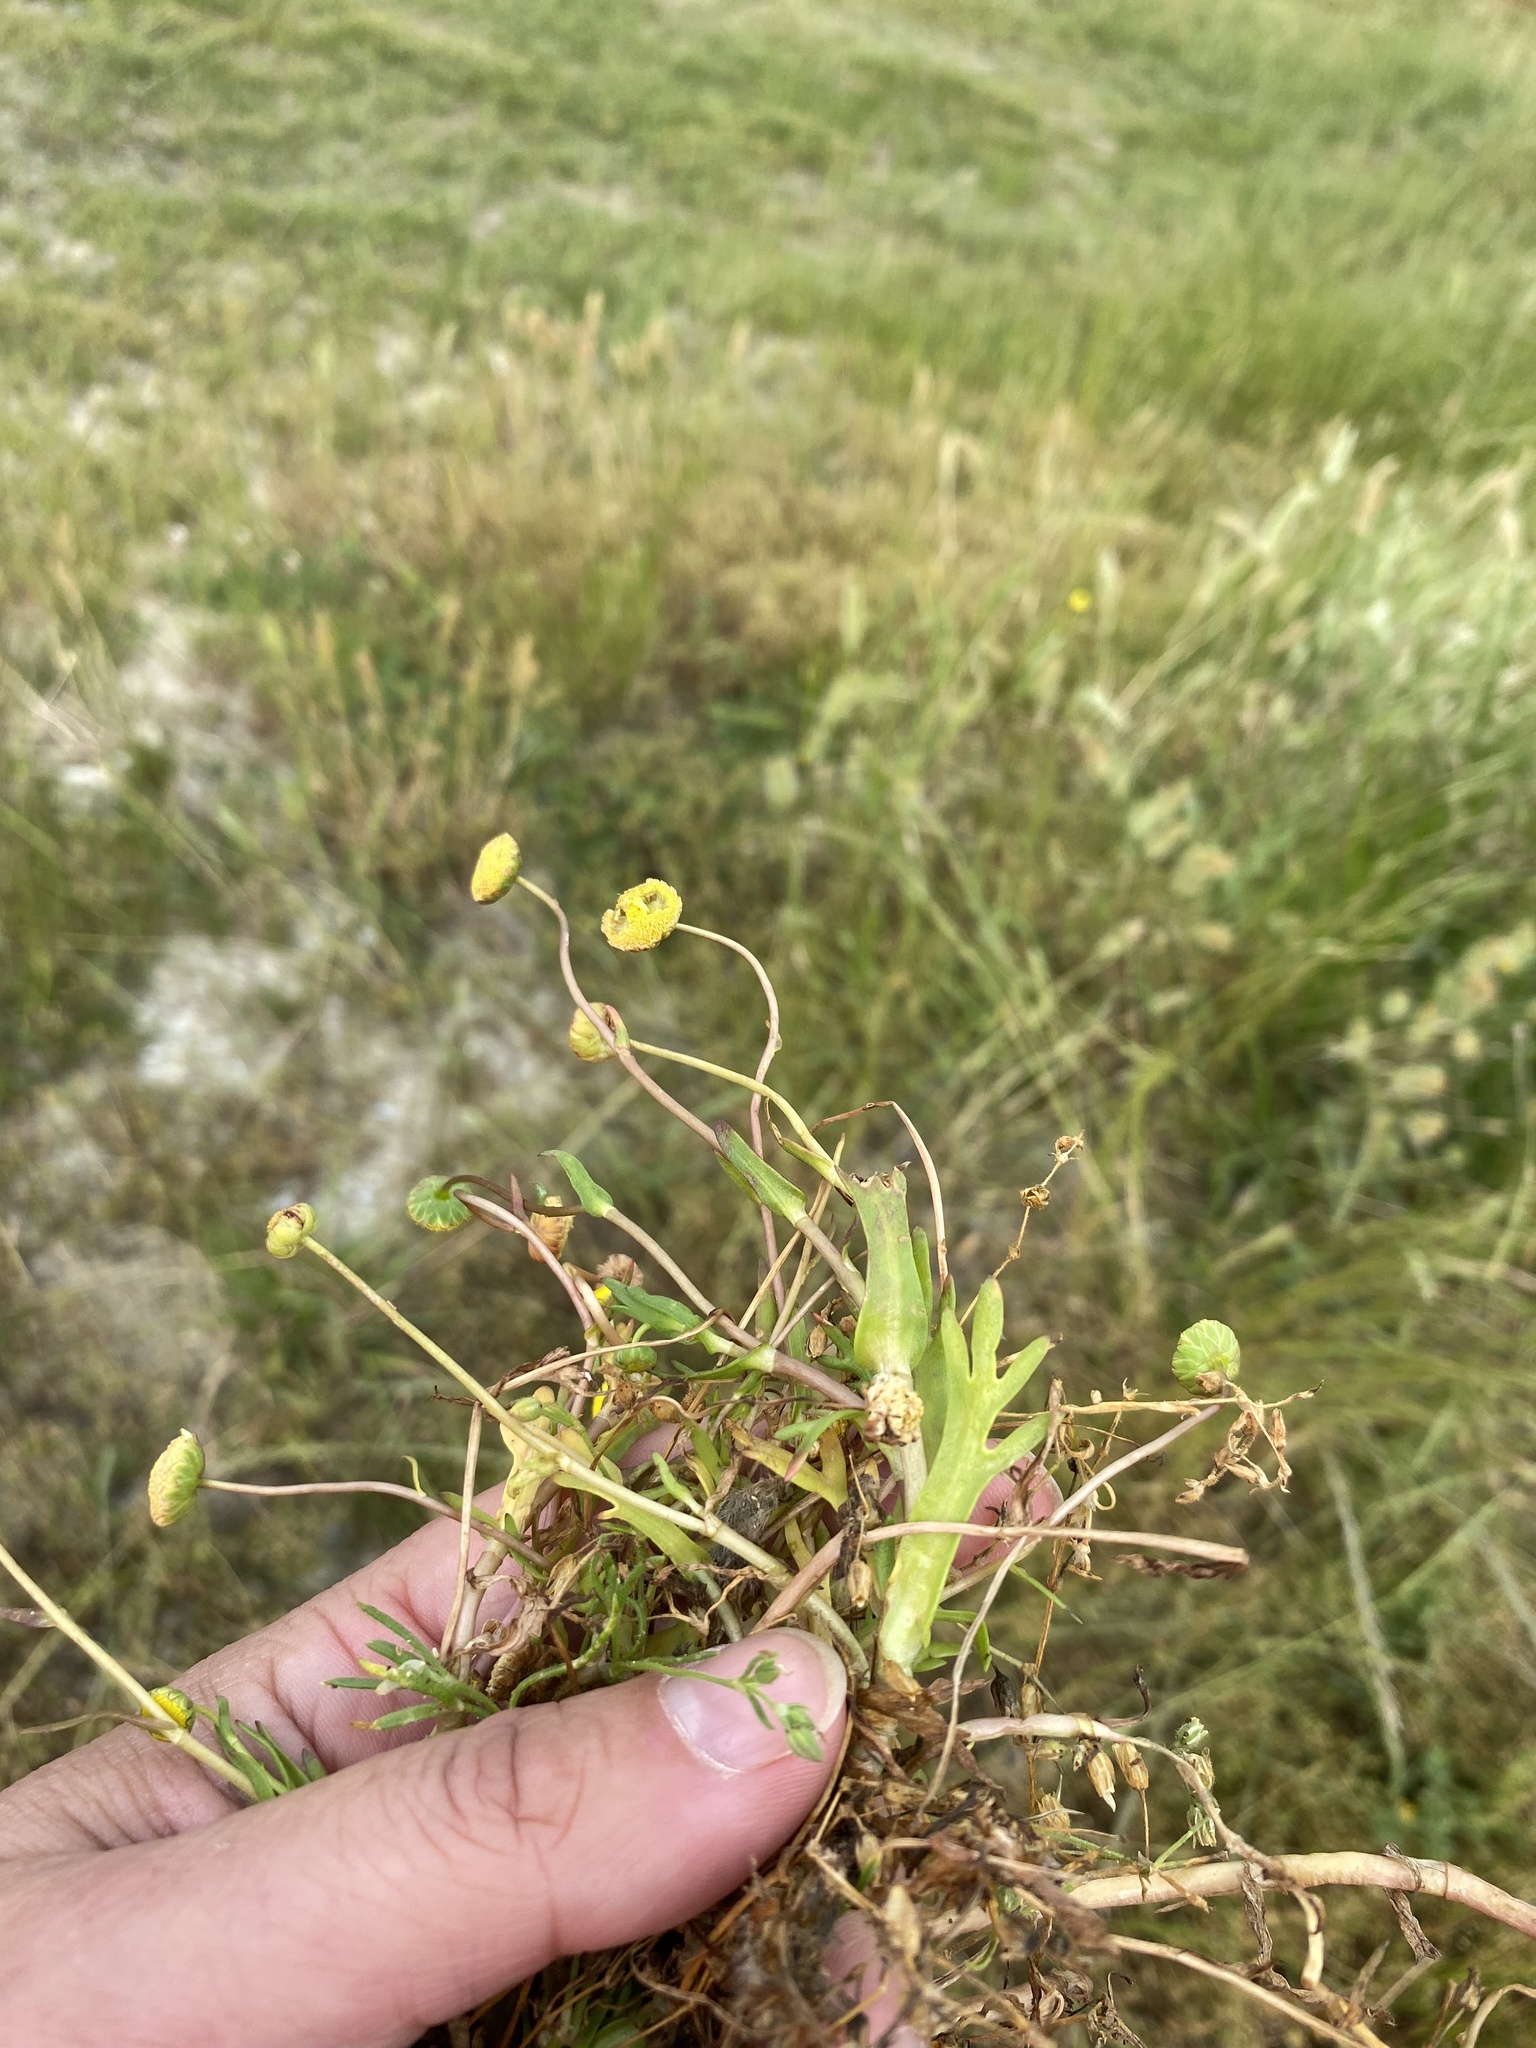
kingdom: Plantae
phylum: Tracheophyta
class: Magnoliopsida
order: Asterales
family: Asteraceae
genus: Cotula
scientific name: Cotula coronopifolia
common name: Buttonweed
